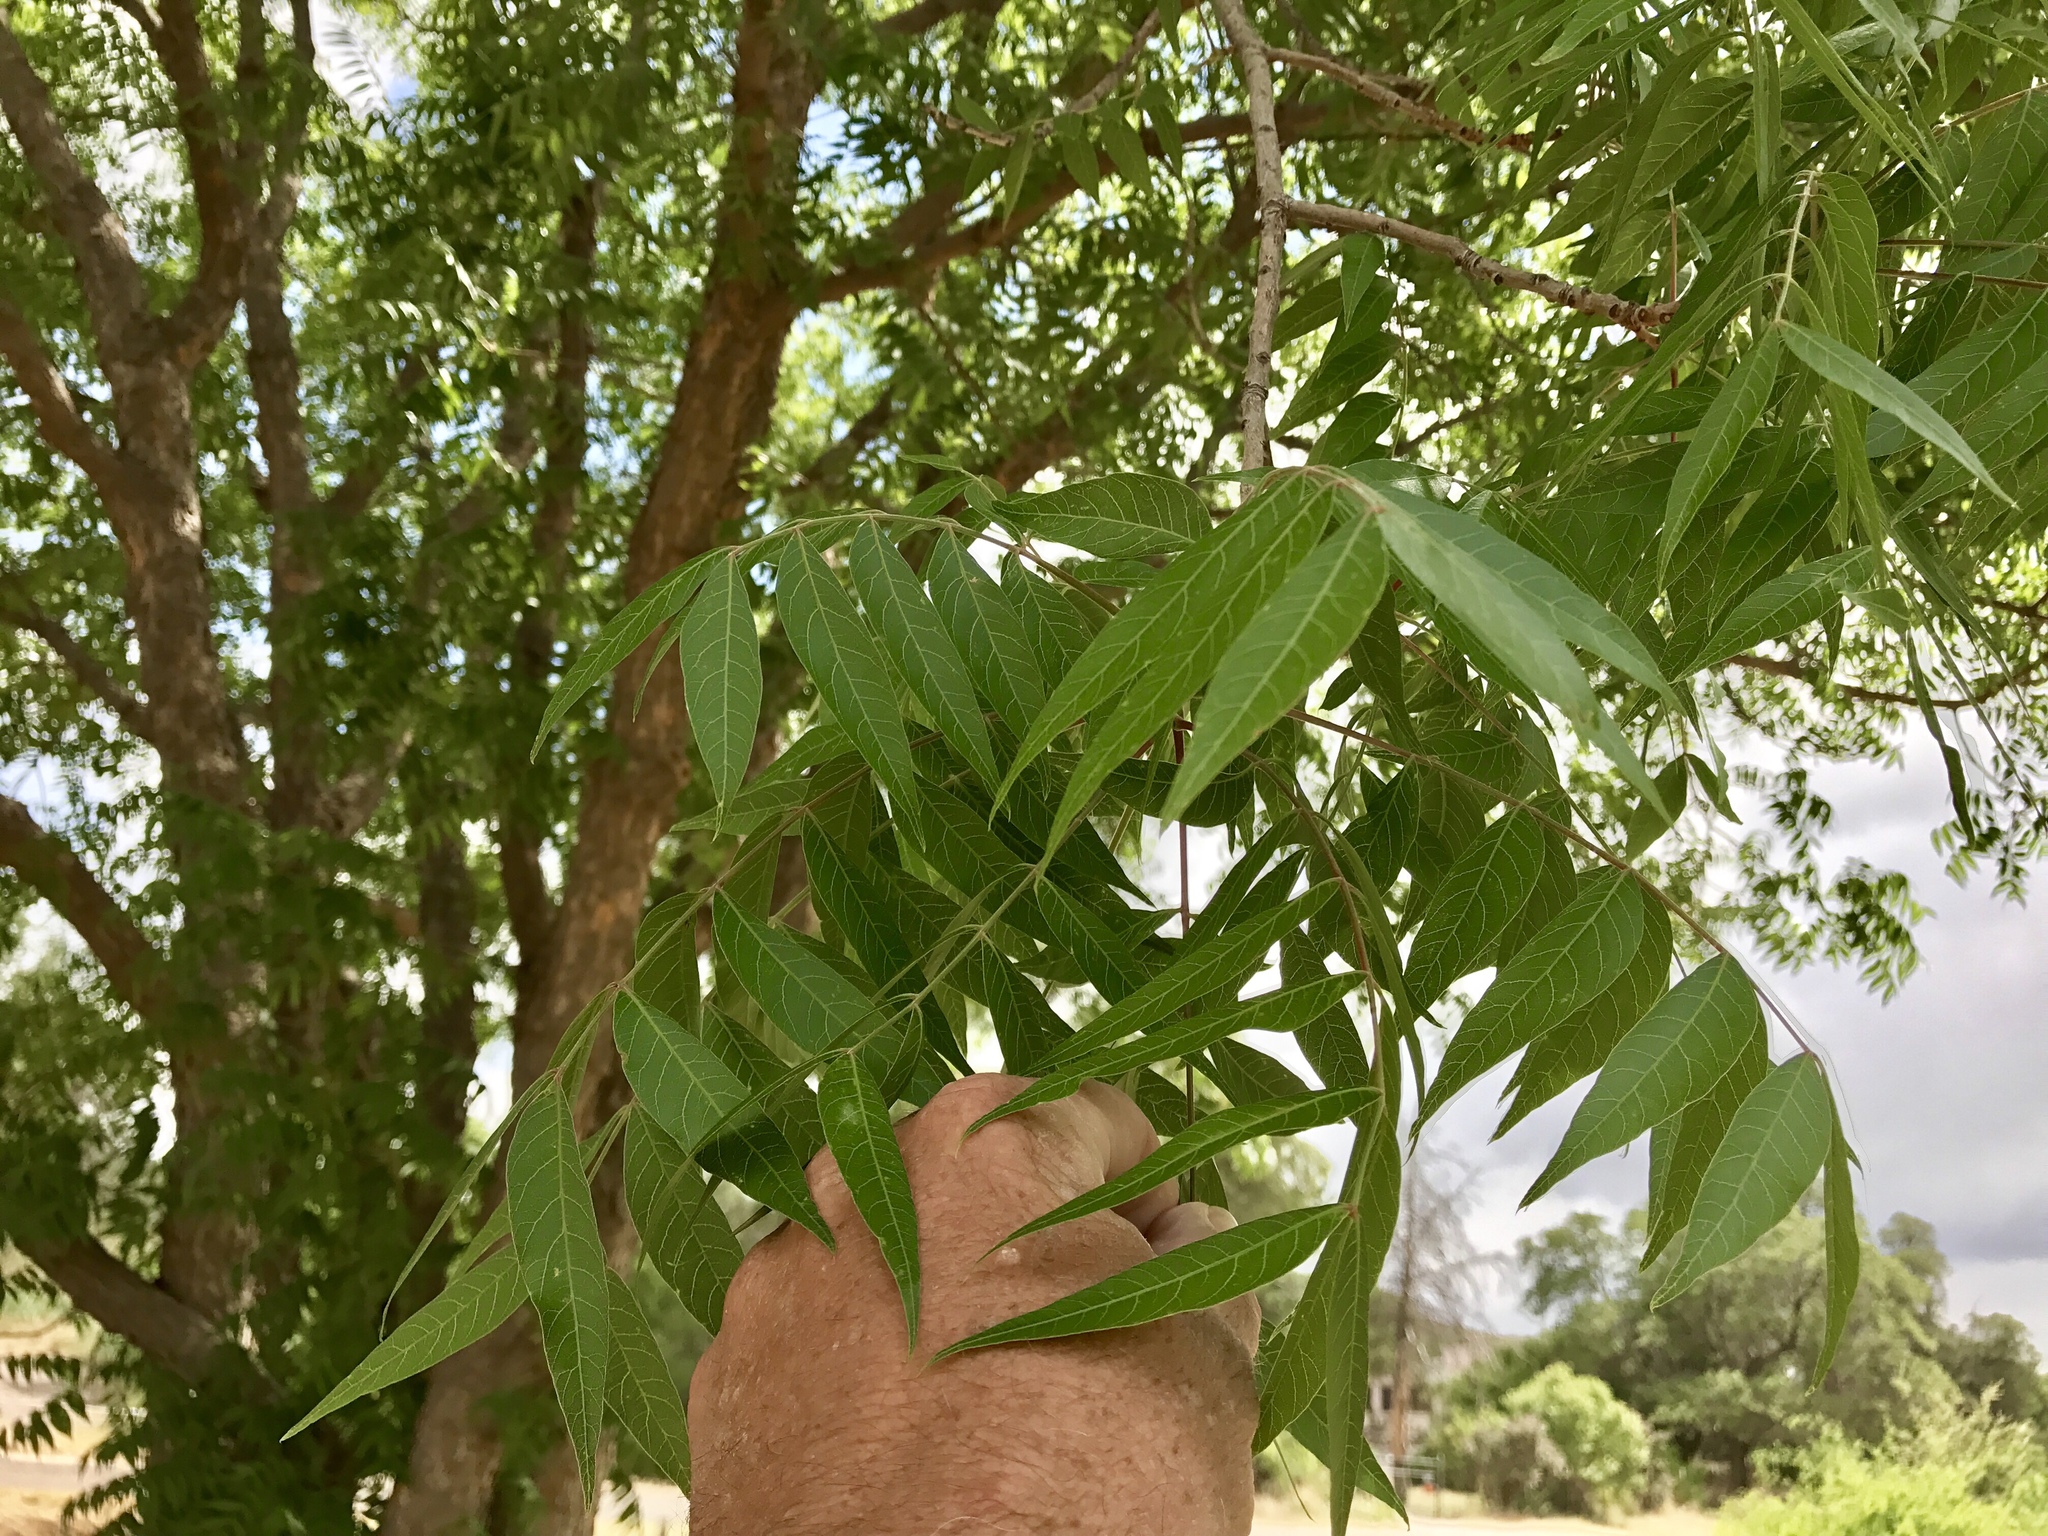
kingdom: Plantae
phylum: Tracheophyta
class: Magnoliopsida
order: Fagales
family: Juglandaceae
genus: Juglans
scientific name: Juglans major
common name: Arizona walnut
